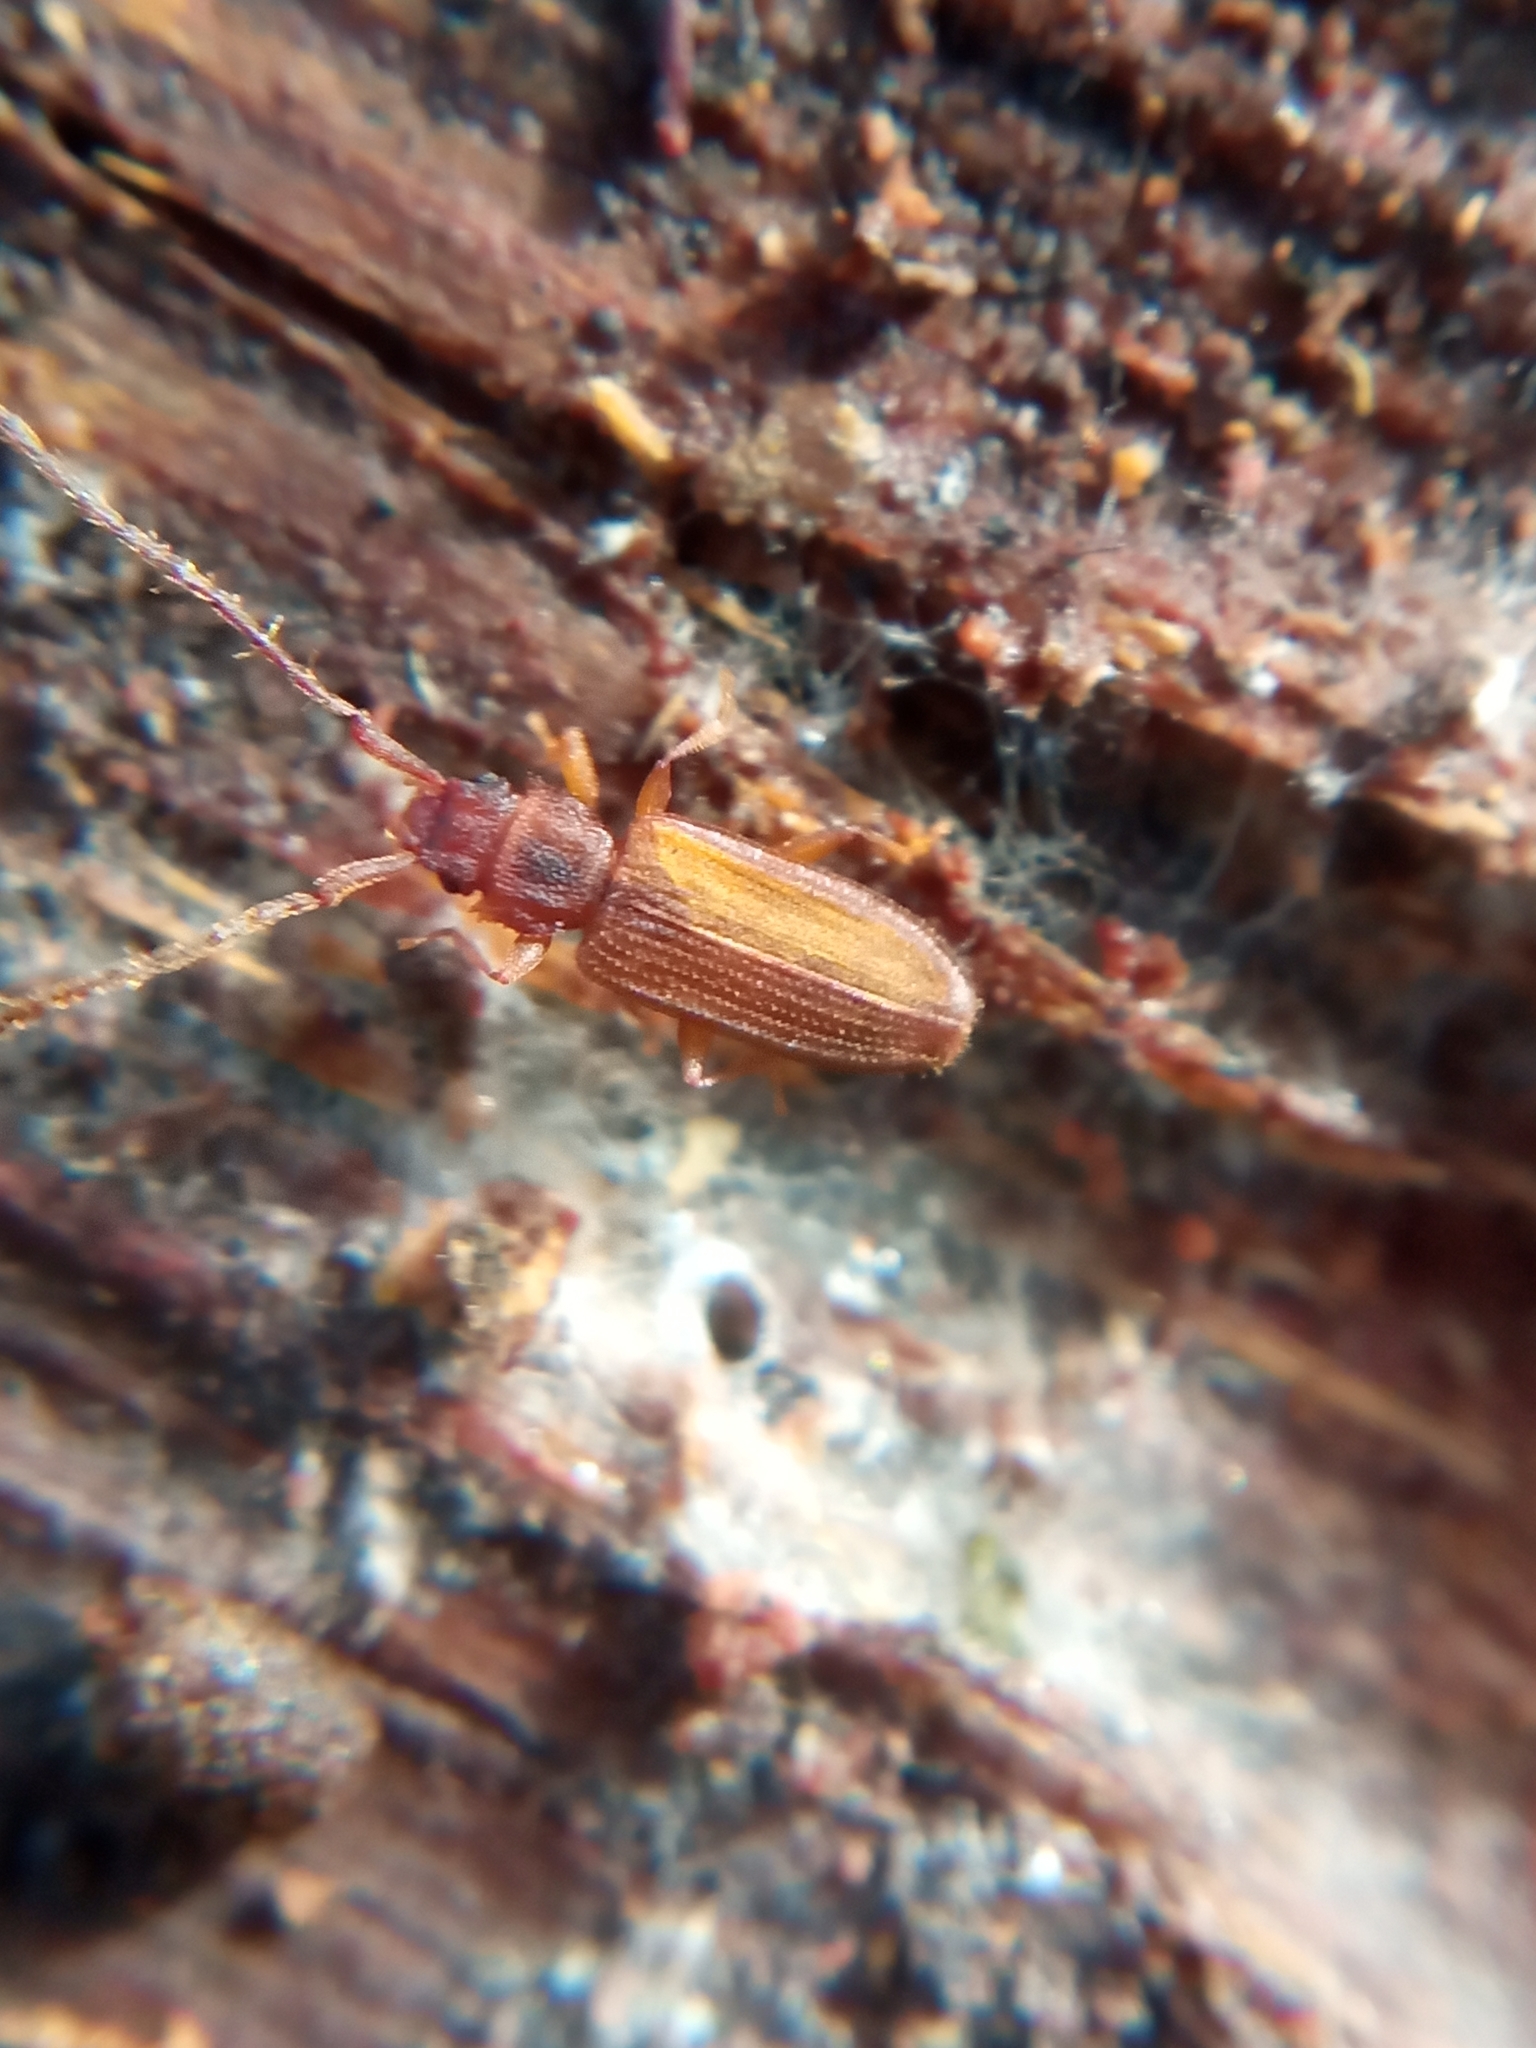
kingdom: Animalia
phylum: Arthropoda
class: Insecta
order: Coleoptera
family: Silvanidae
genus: Uleiota
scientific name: Uleiota planatus
